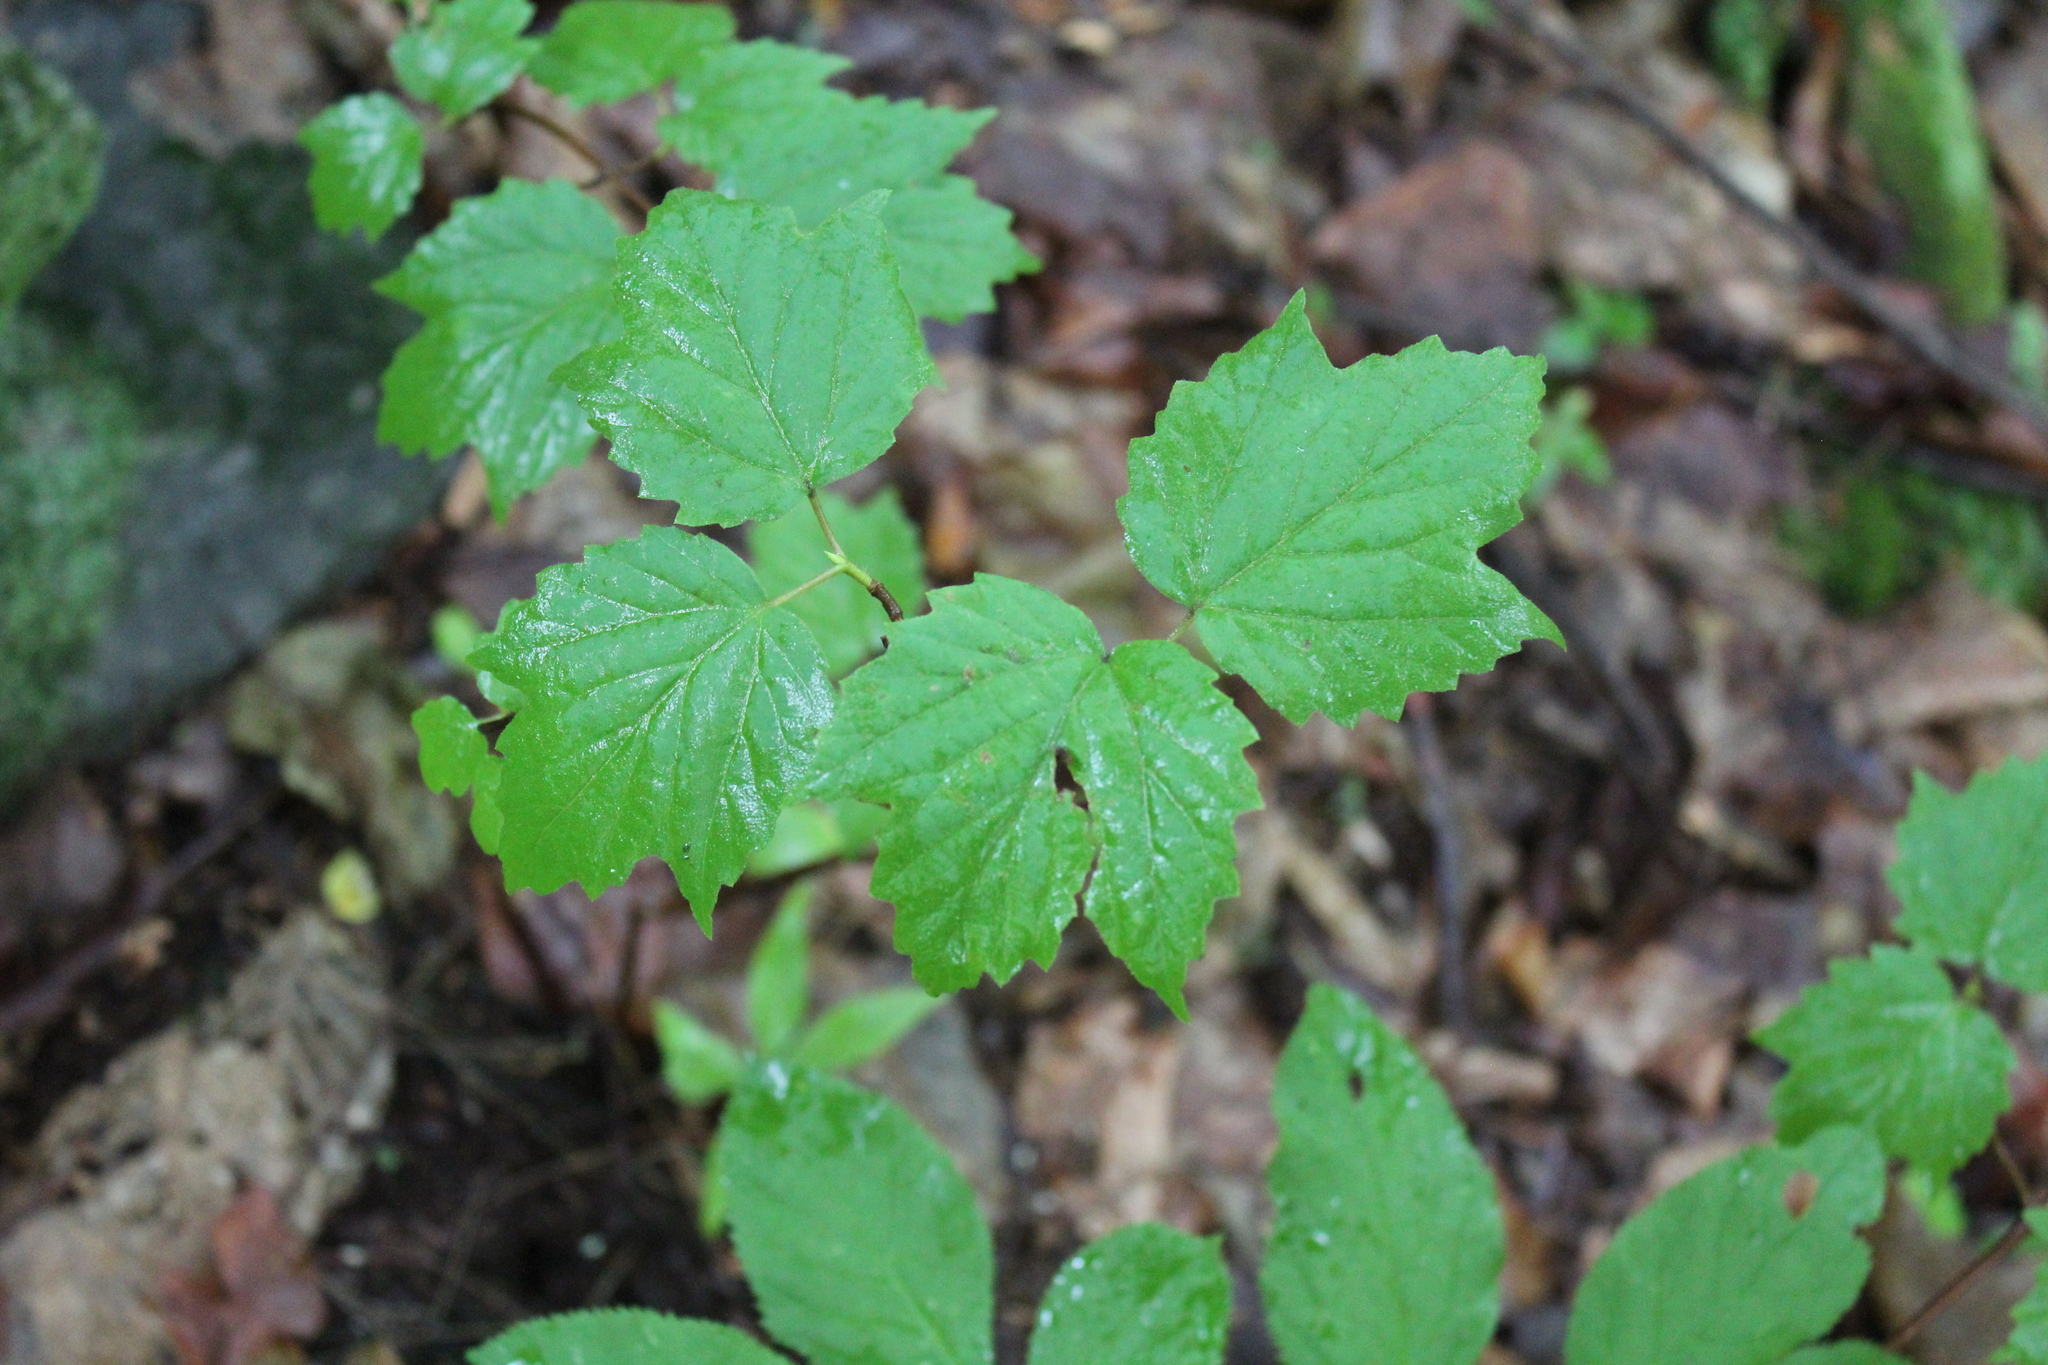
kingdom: Plantae
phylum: Tracheophyta
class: Magnoliopsida
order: Dipsacales
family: Viburnaceae
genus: Viburnum
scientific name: Viburnum acerifolium
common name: Dockmackie
